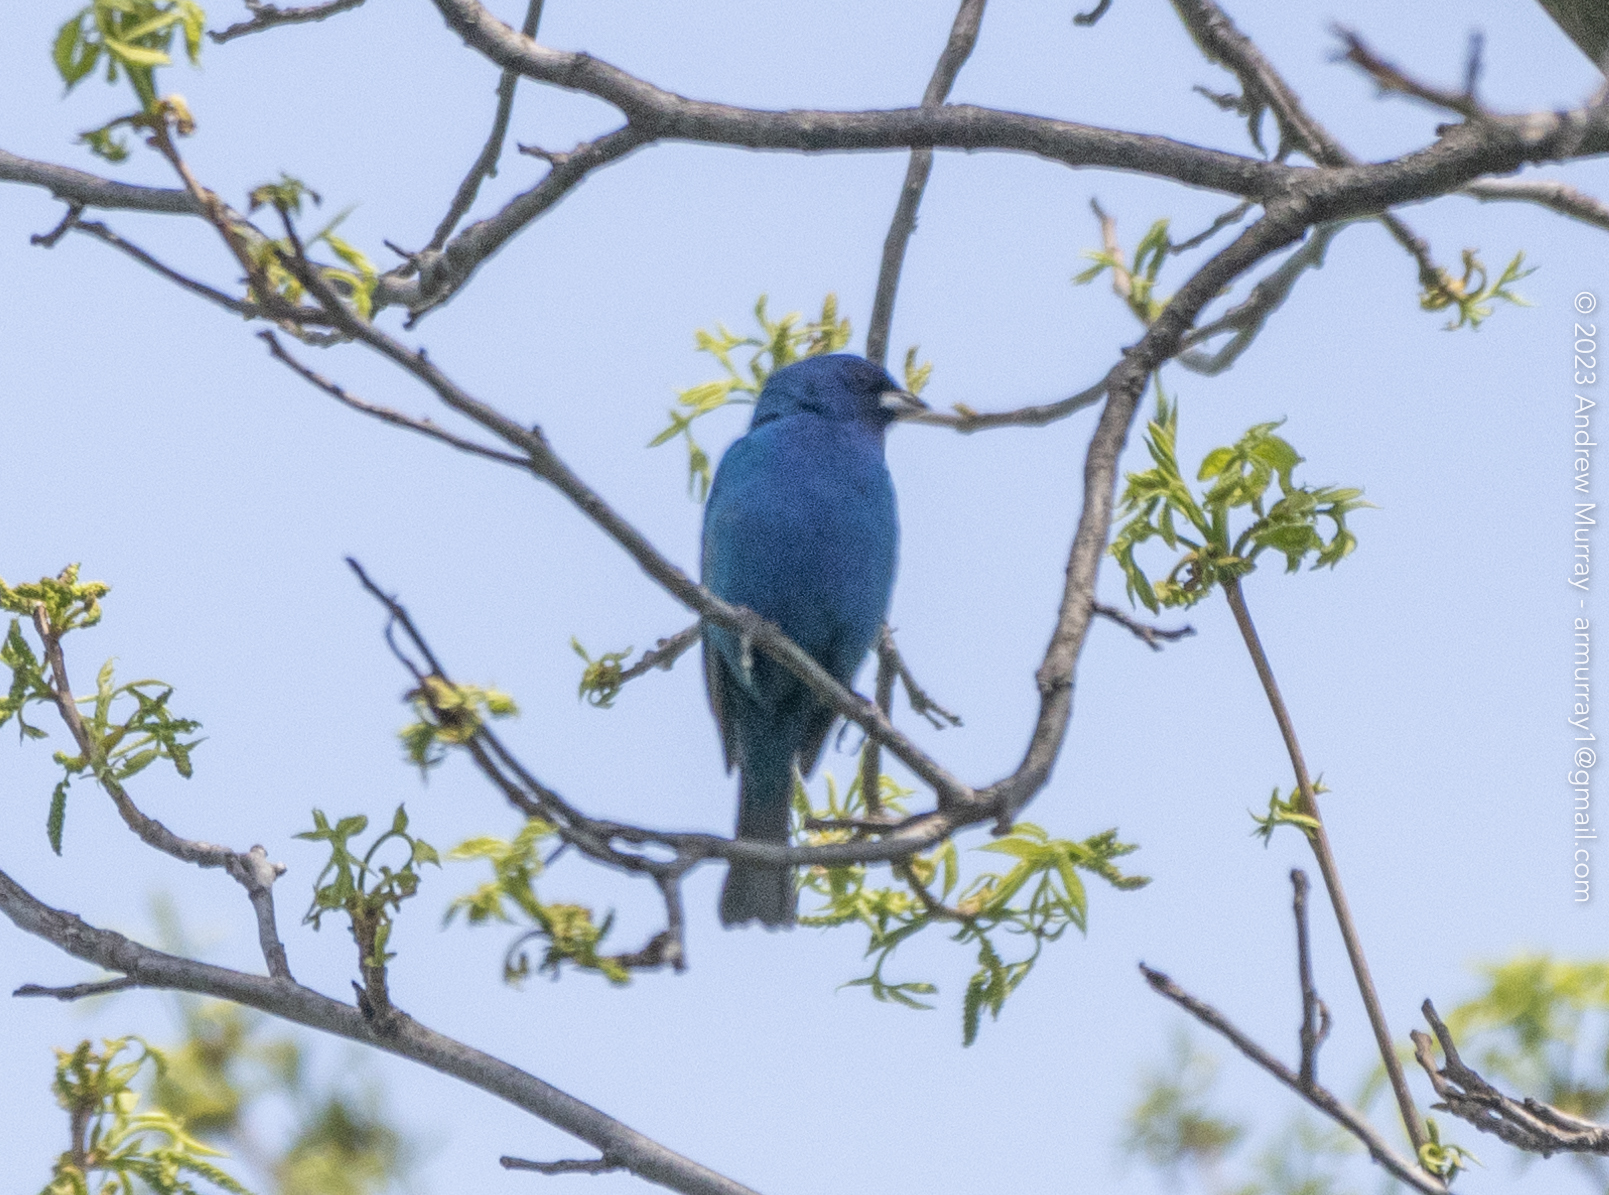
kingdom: Animalia
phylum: Chordata
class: Aves
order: Passeriformes
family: Cardinalidae
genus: Passerina
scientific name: Passerina cyanea
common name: Indigo bunting
